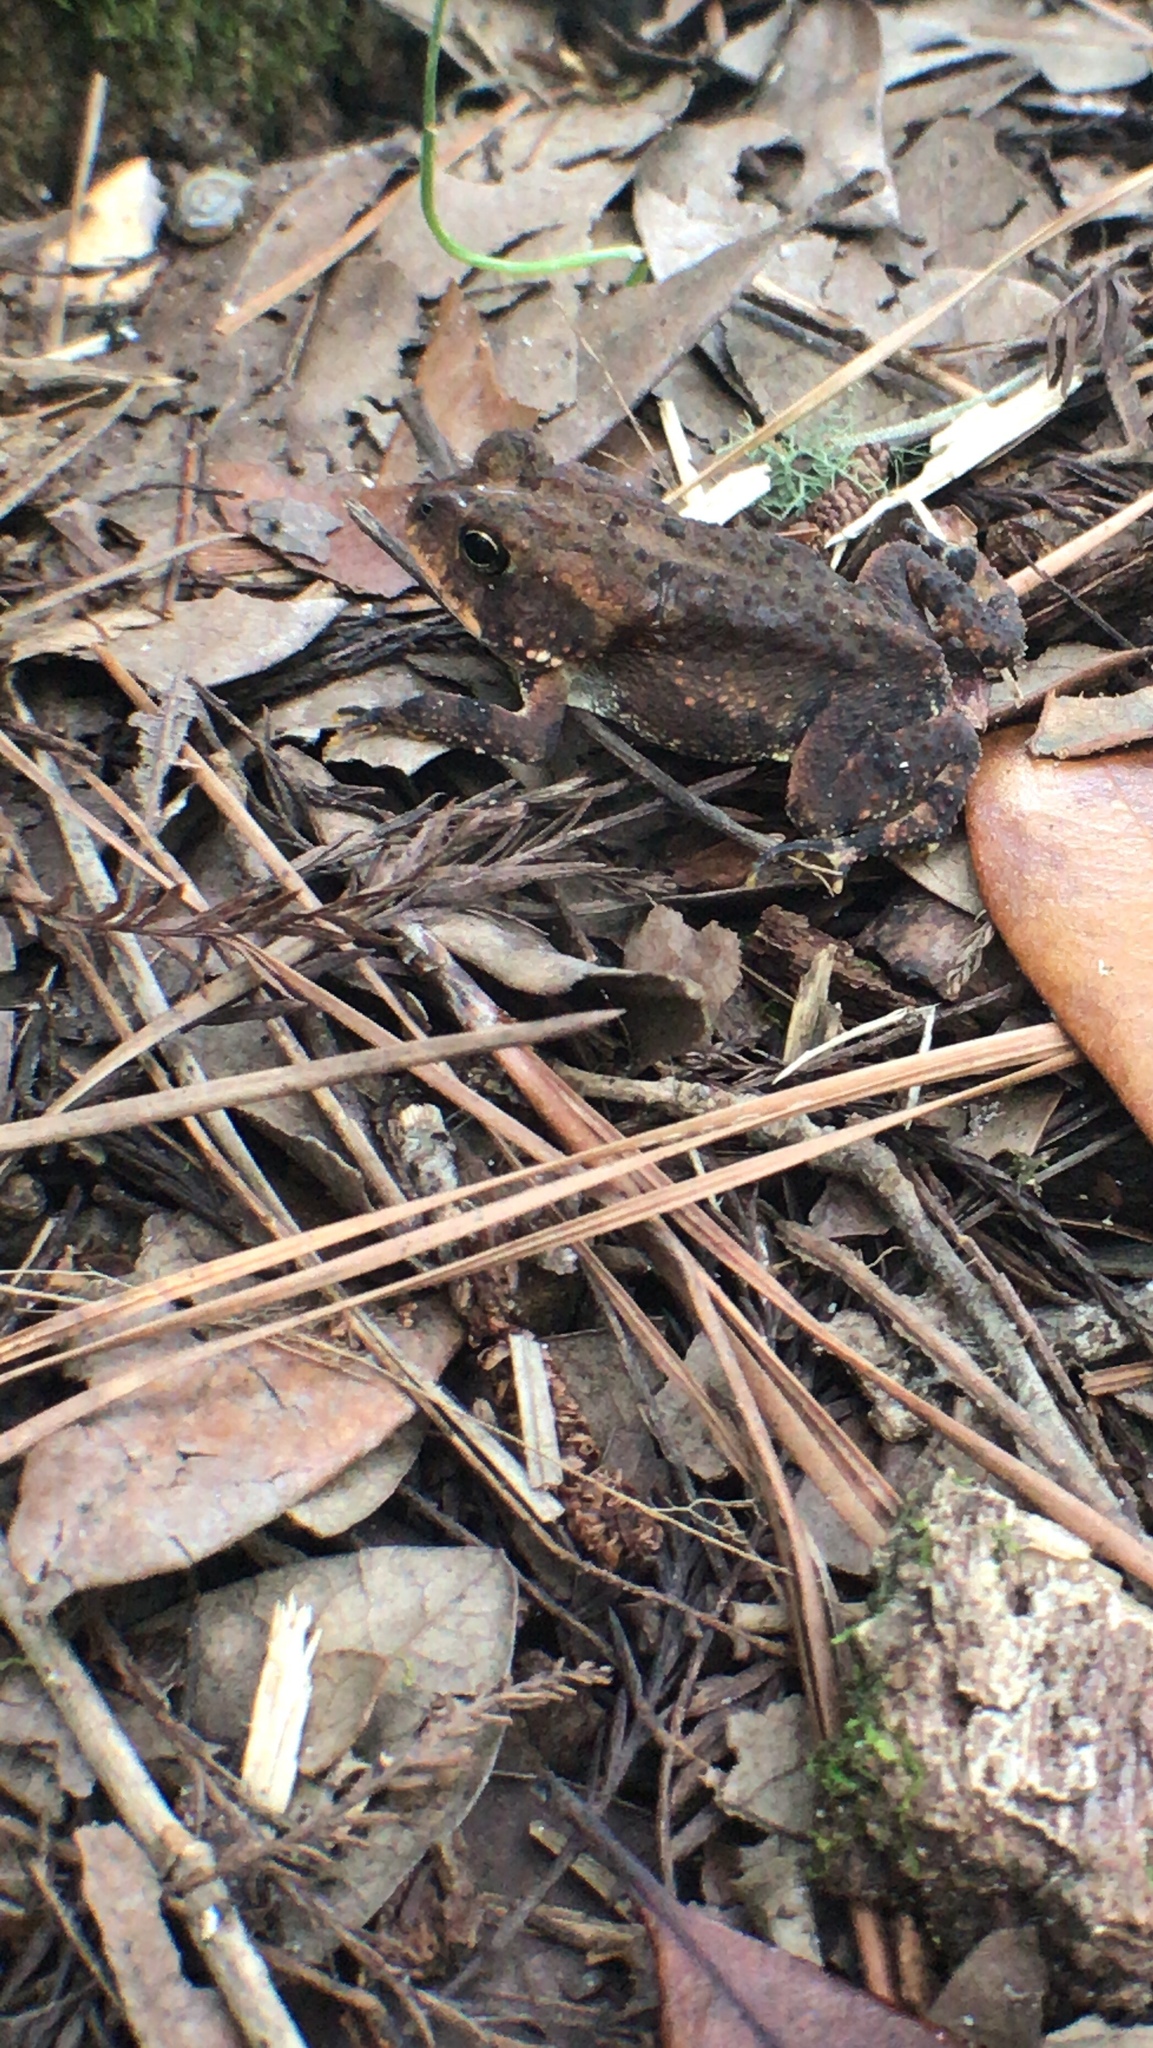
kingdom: Animalia
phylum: Chordata
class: Amphibia
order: Anura
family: Bufonidae
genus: Anaxyrus
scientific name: Anaxyrus terrestris
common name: Southern toad
